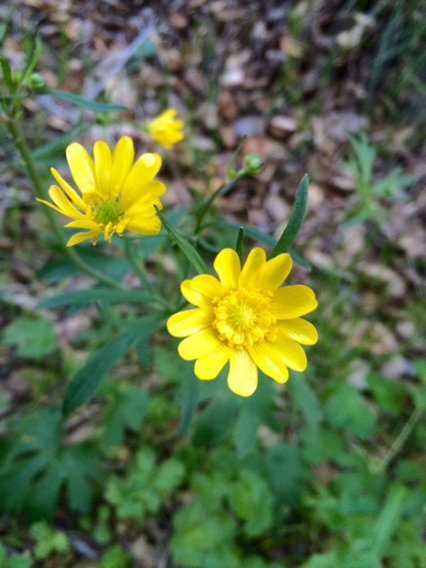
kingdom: Plantae
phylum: Tracheophyta
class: Magnoliopsida
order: Ranunculales
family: Ranunculaceae
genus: Ranunculus
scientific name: Ranunculus californicus
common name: California buttercup
